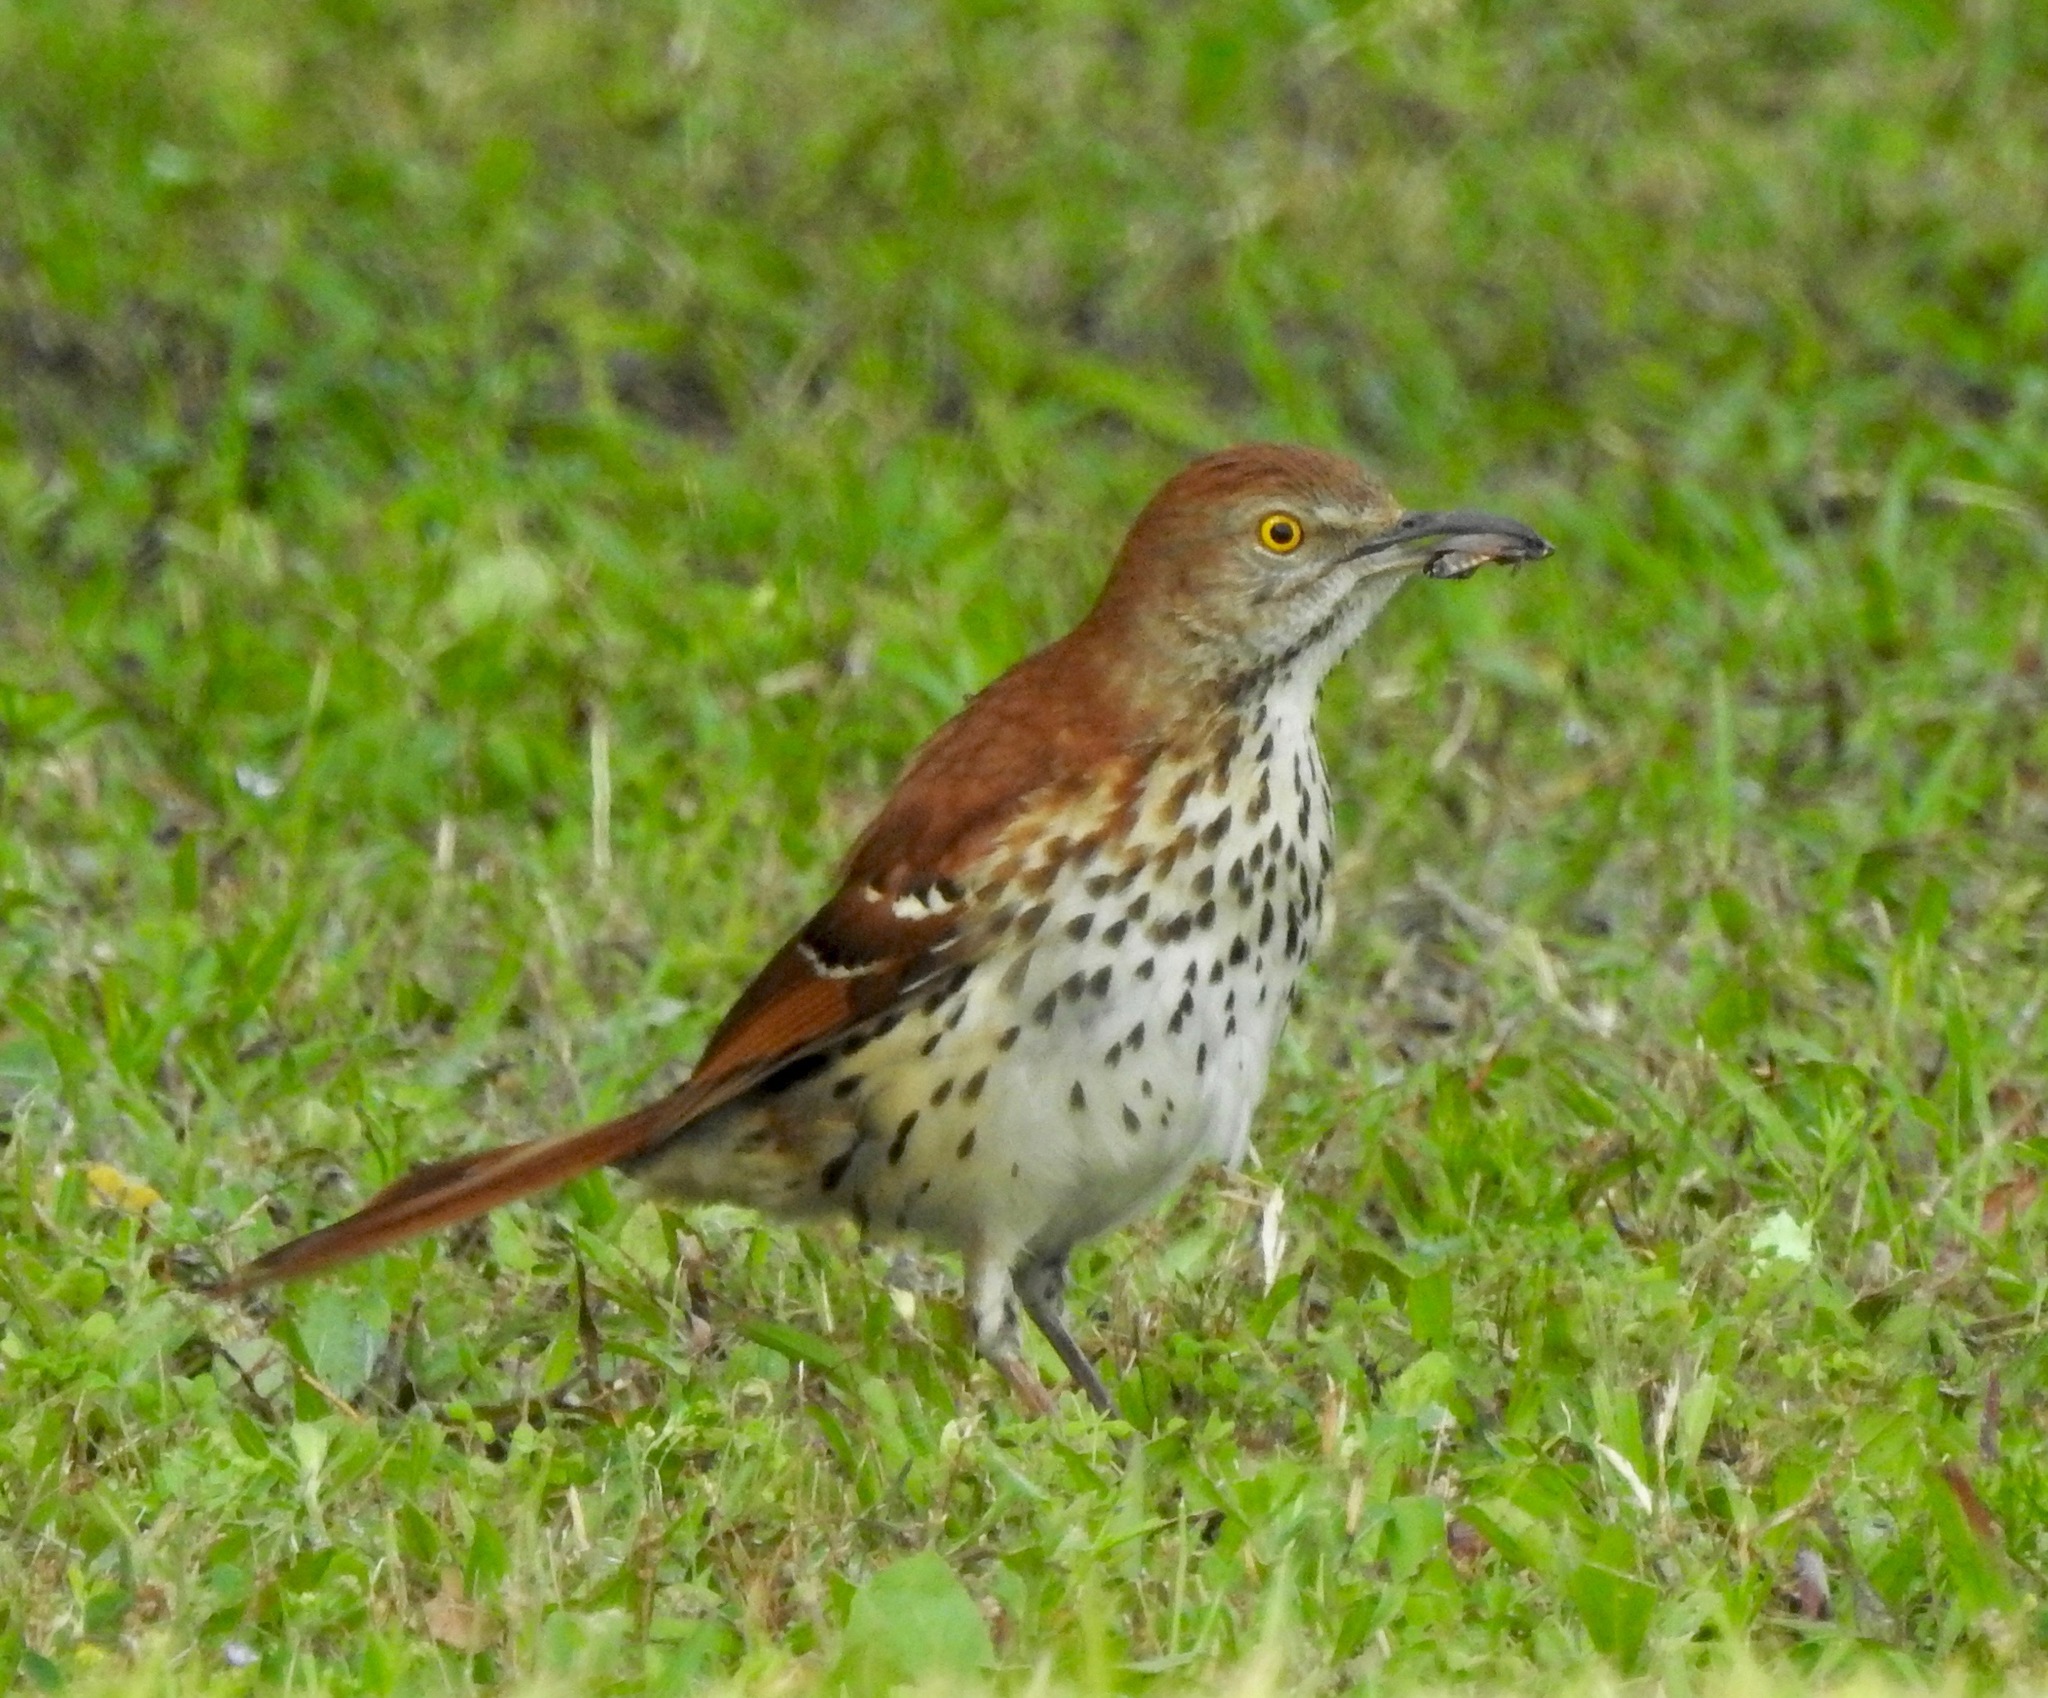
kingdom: Animalia
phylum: Chordata
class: Aves
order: Passeriformes
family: Mimidae
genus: Toxostoma
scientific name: Toxostoma rufum
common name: Brown thrasher
